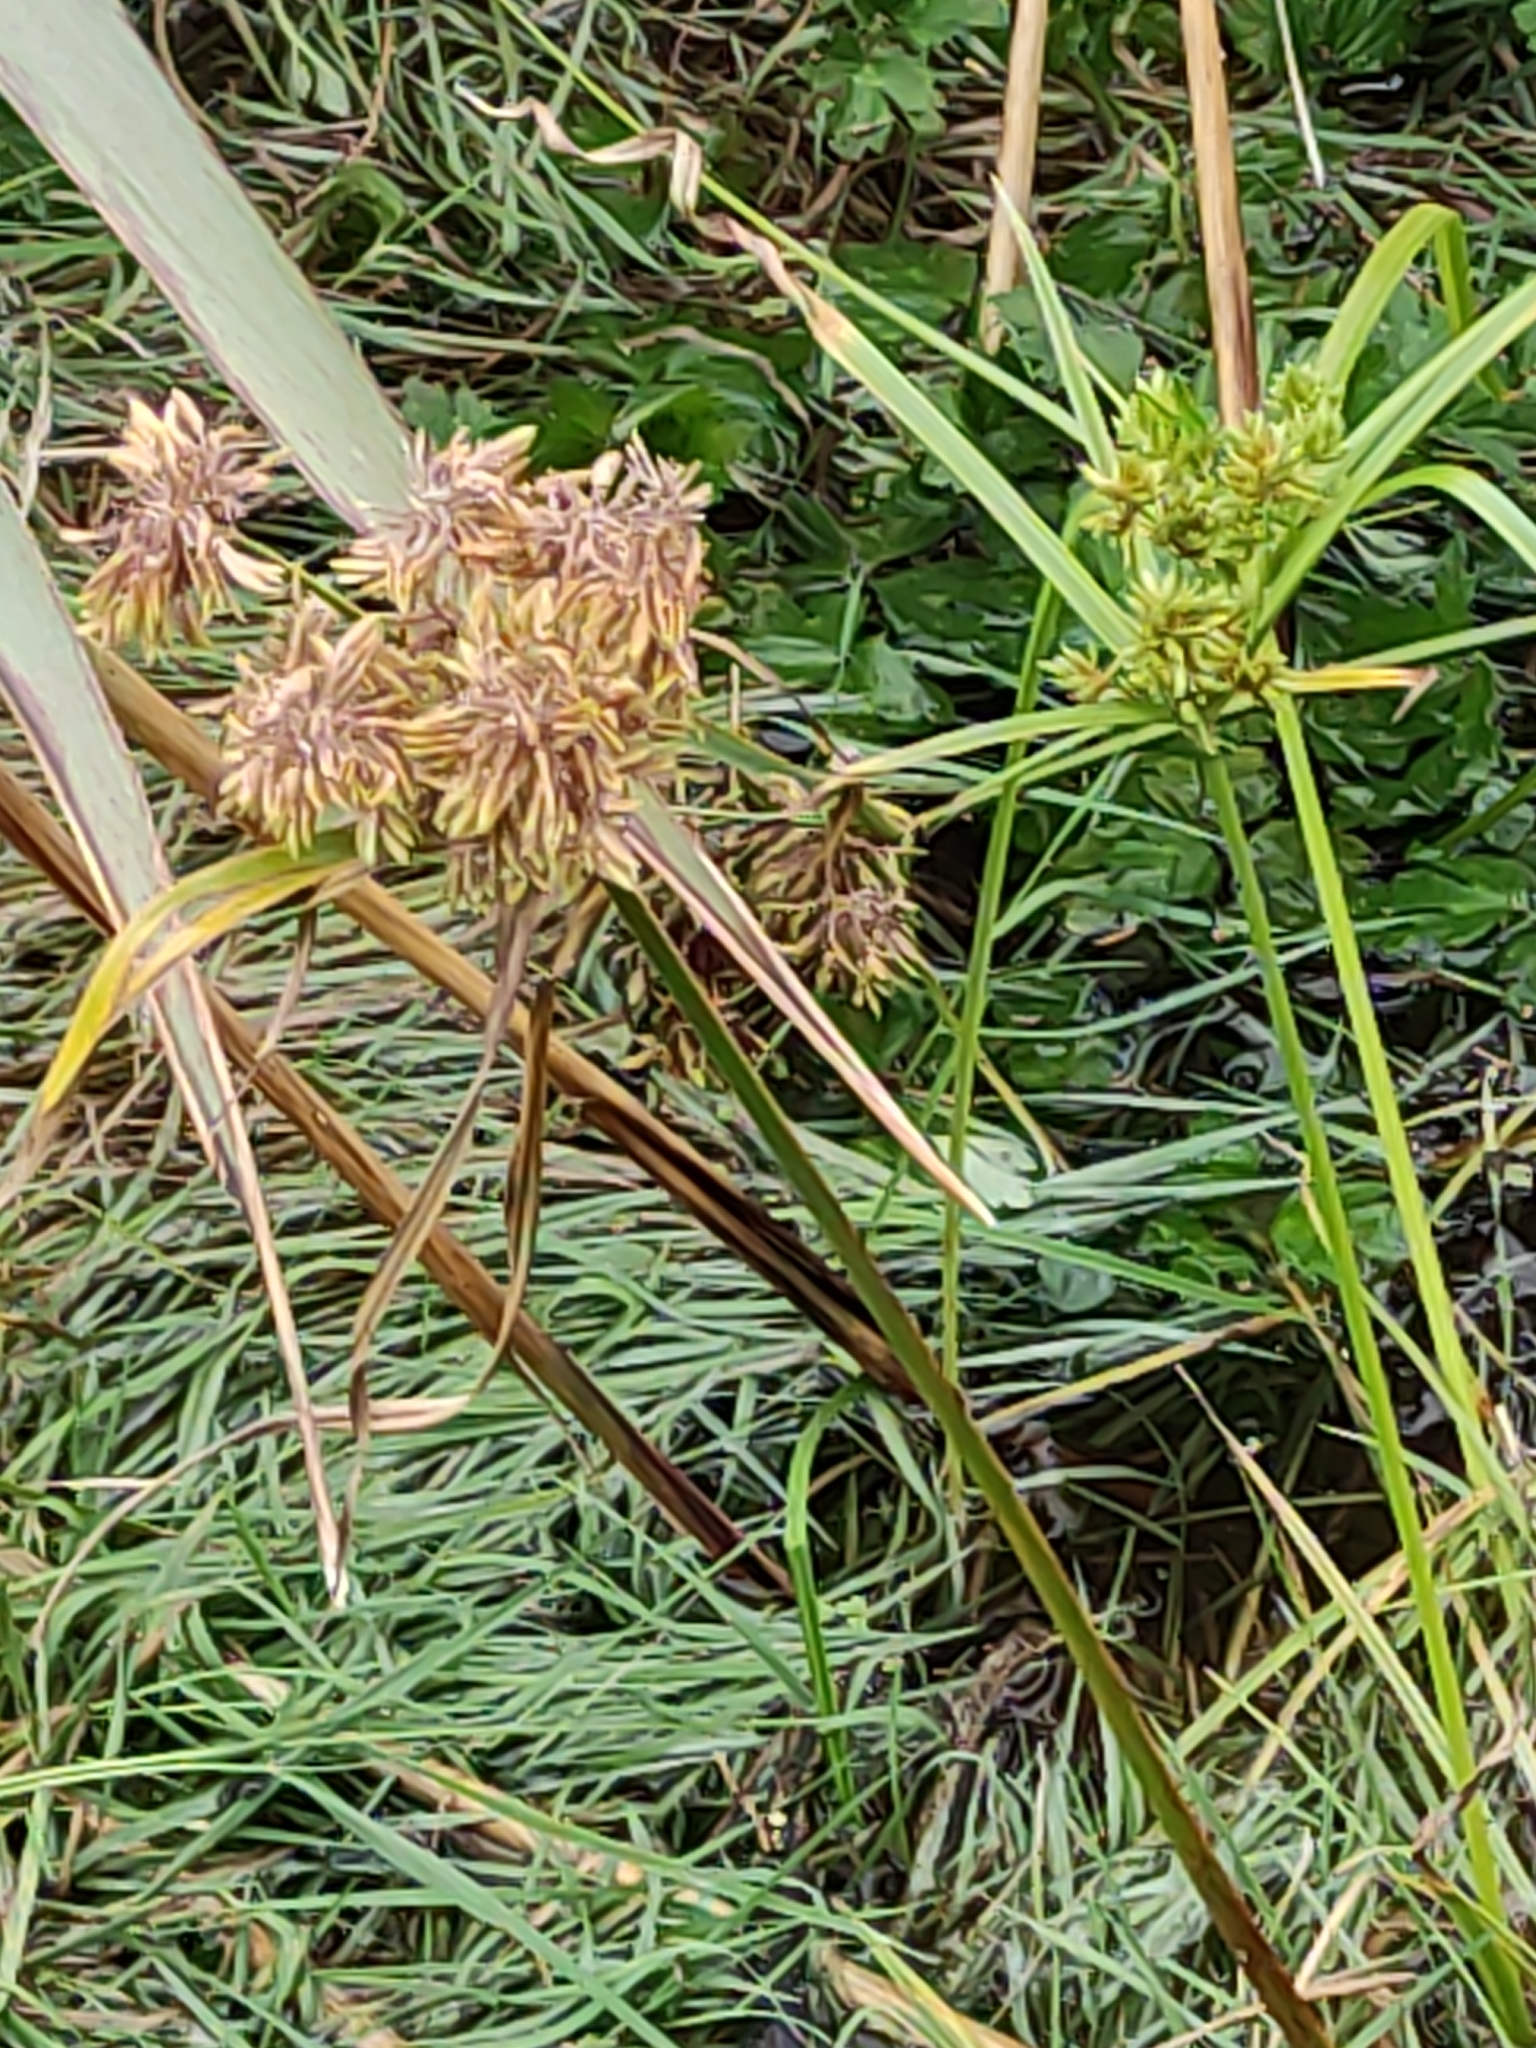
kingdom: Plantae
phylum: Tracheophyta
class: Liliopsida
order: Poales
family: Cyperaceae
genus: Cyperus
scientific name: Cyperus eragrostis
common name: Tall flatsedge
